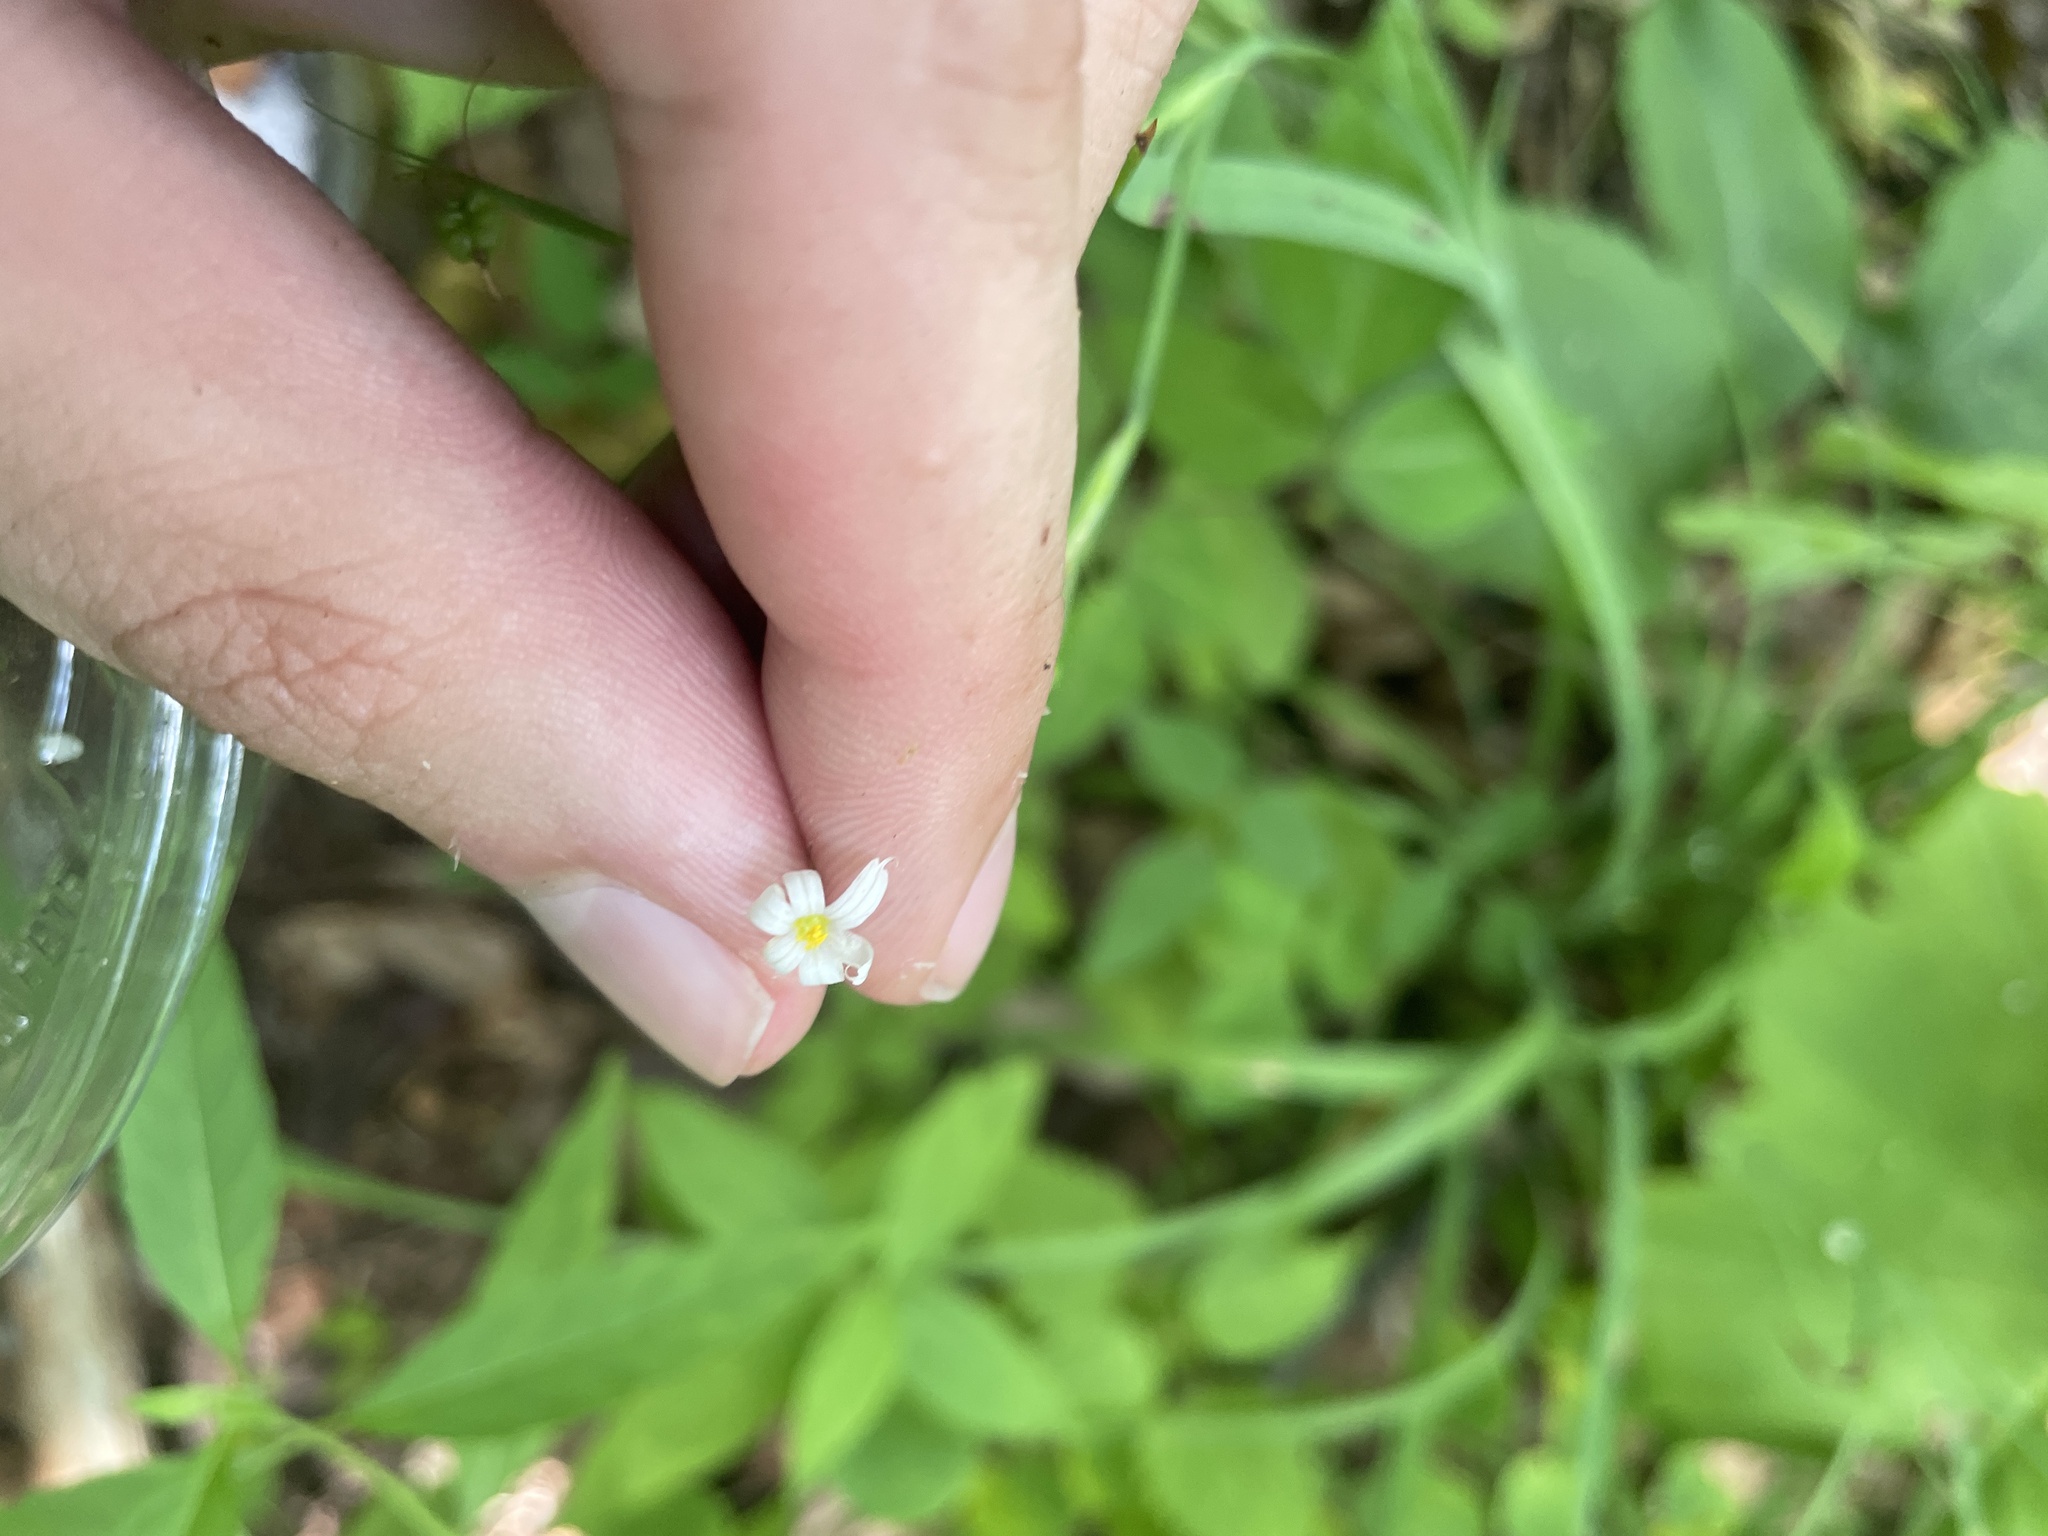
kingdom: Plantae
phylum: Tracheophyta
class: Liliopsida
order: Asparagales
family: Iridaceae
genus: Sisyrinchium
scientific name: Sisyrinchium dichotomum
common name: White irisette
